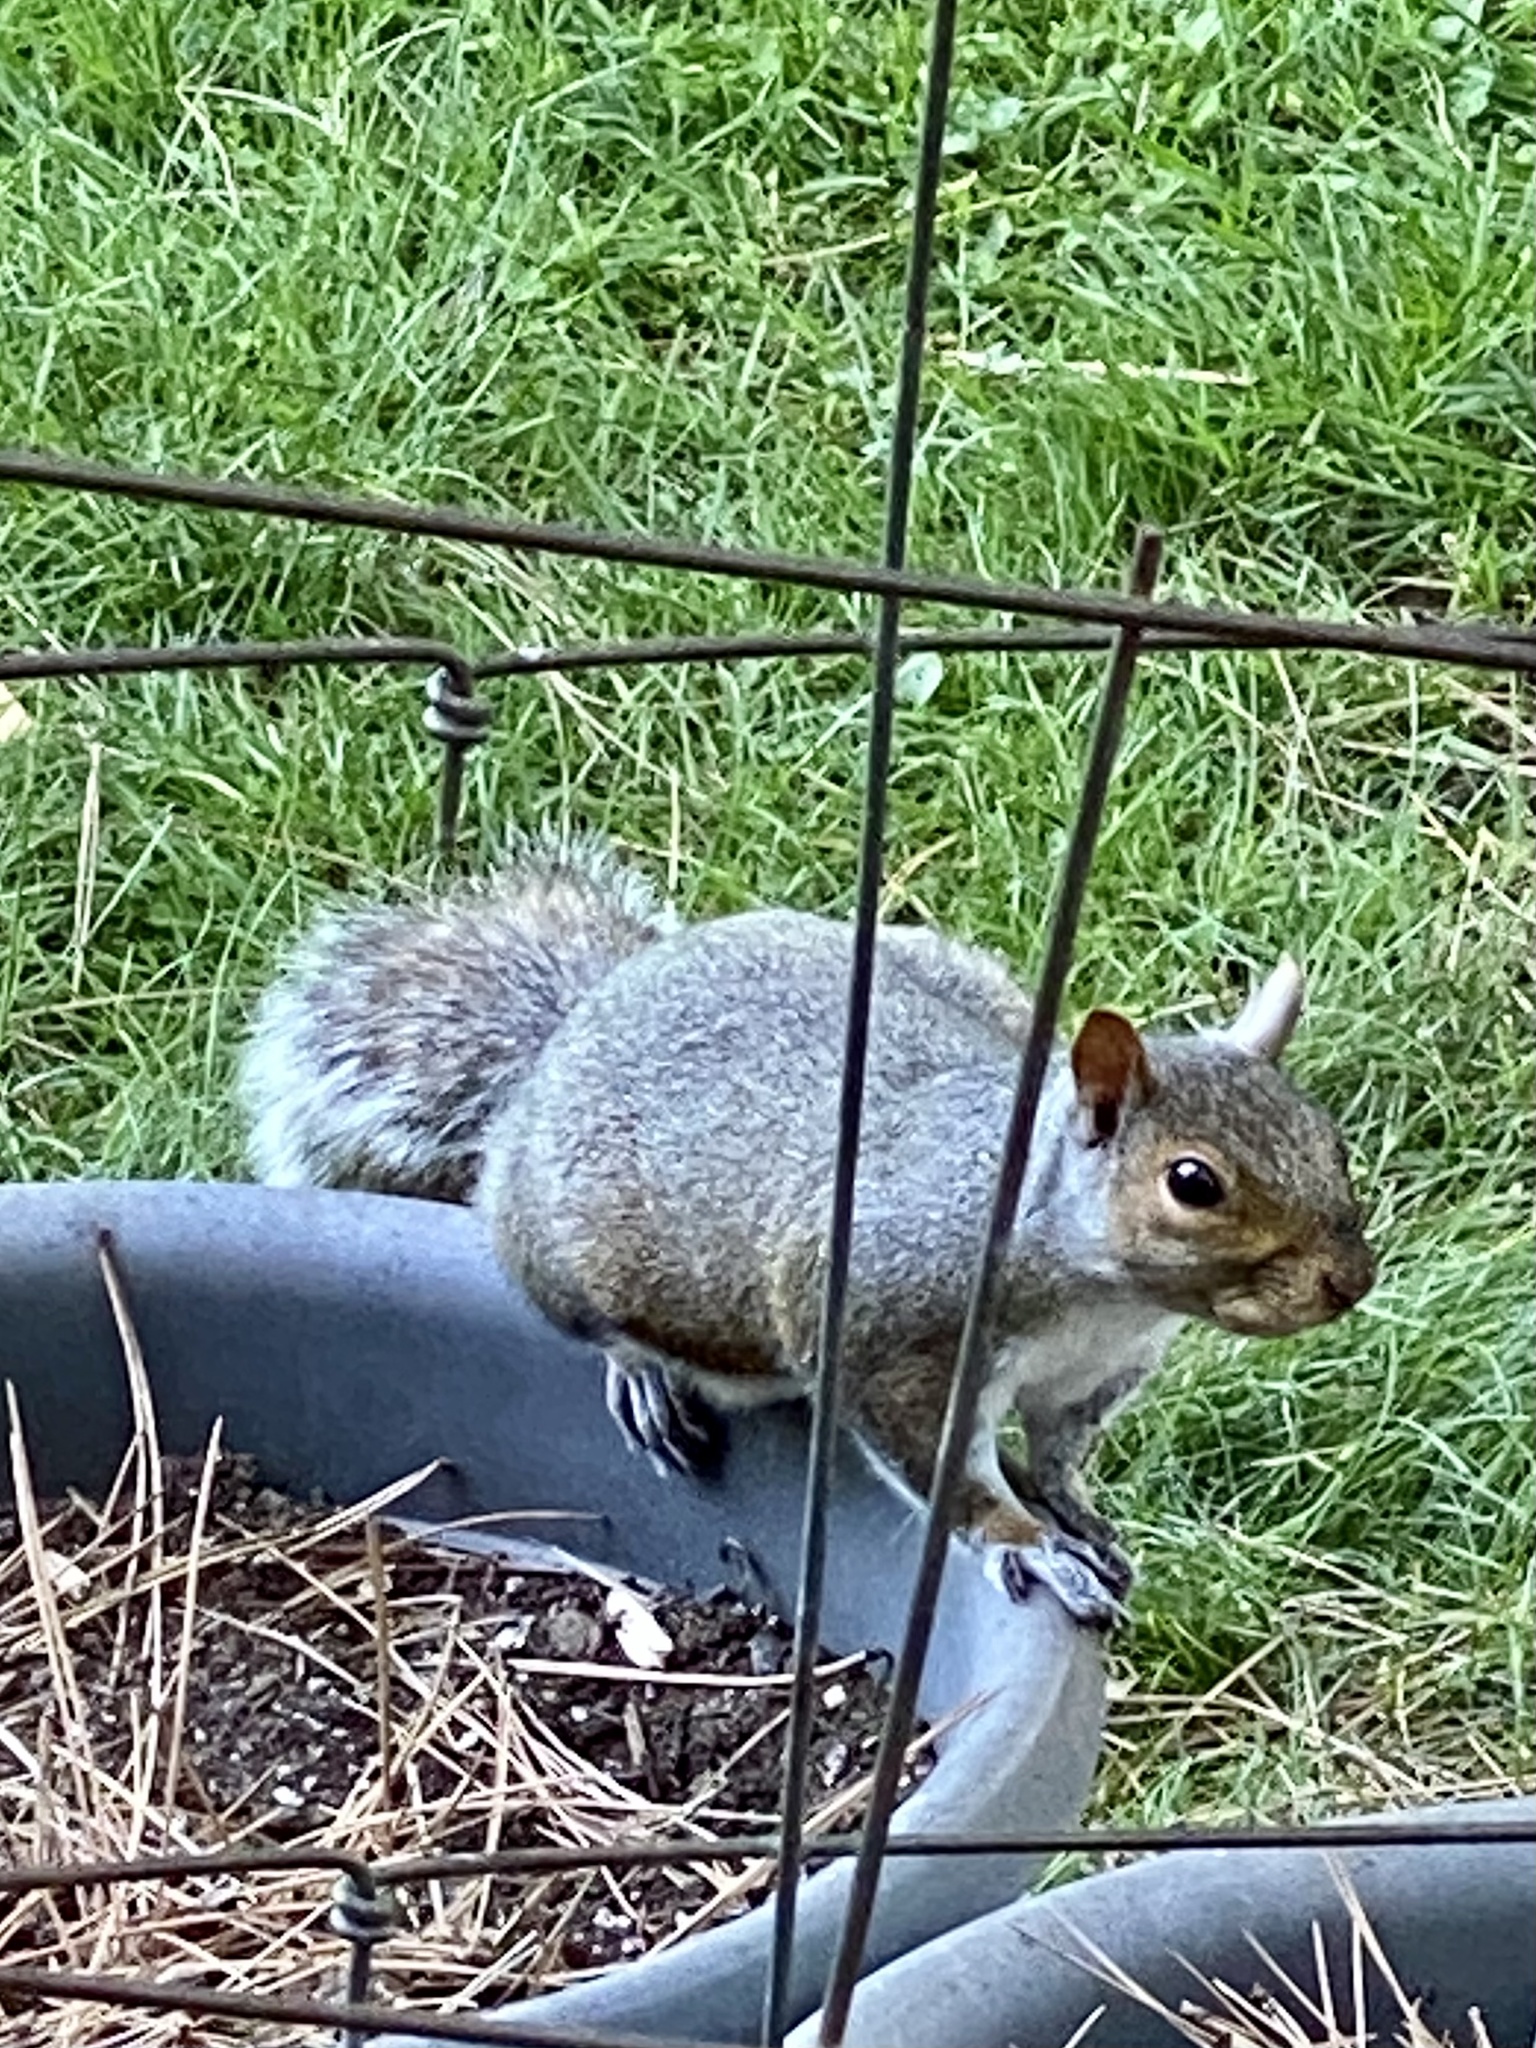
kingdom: Animalia
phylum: Chordata
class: Mammalia
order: Rodentia
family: Sciuridae
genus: Sciurus
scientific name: Sciurus carolinensis
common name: Eastern gray squirrel
